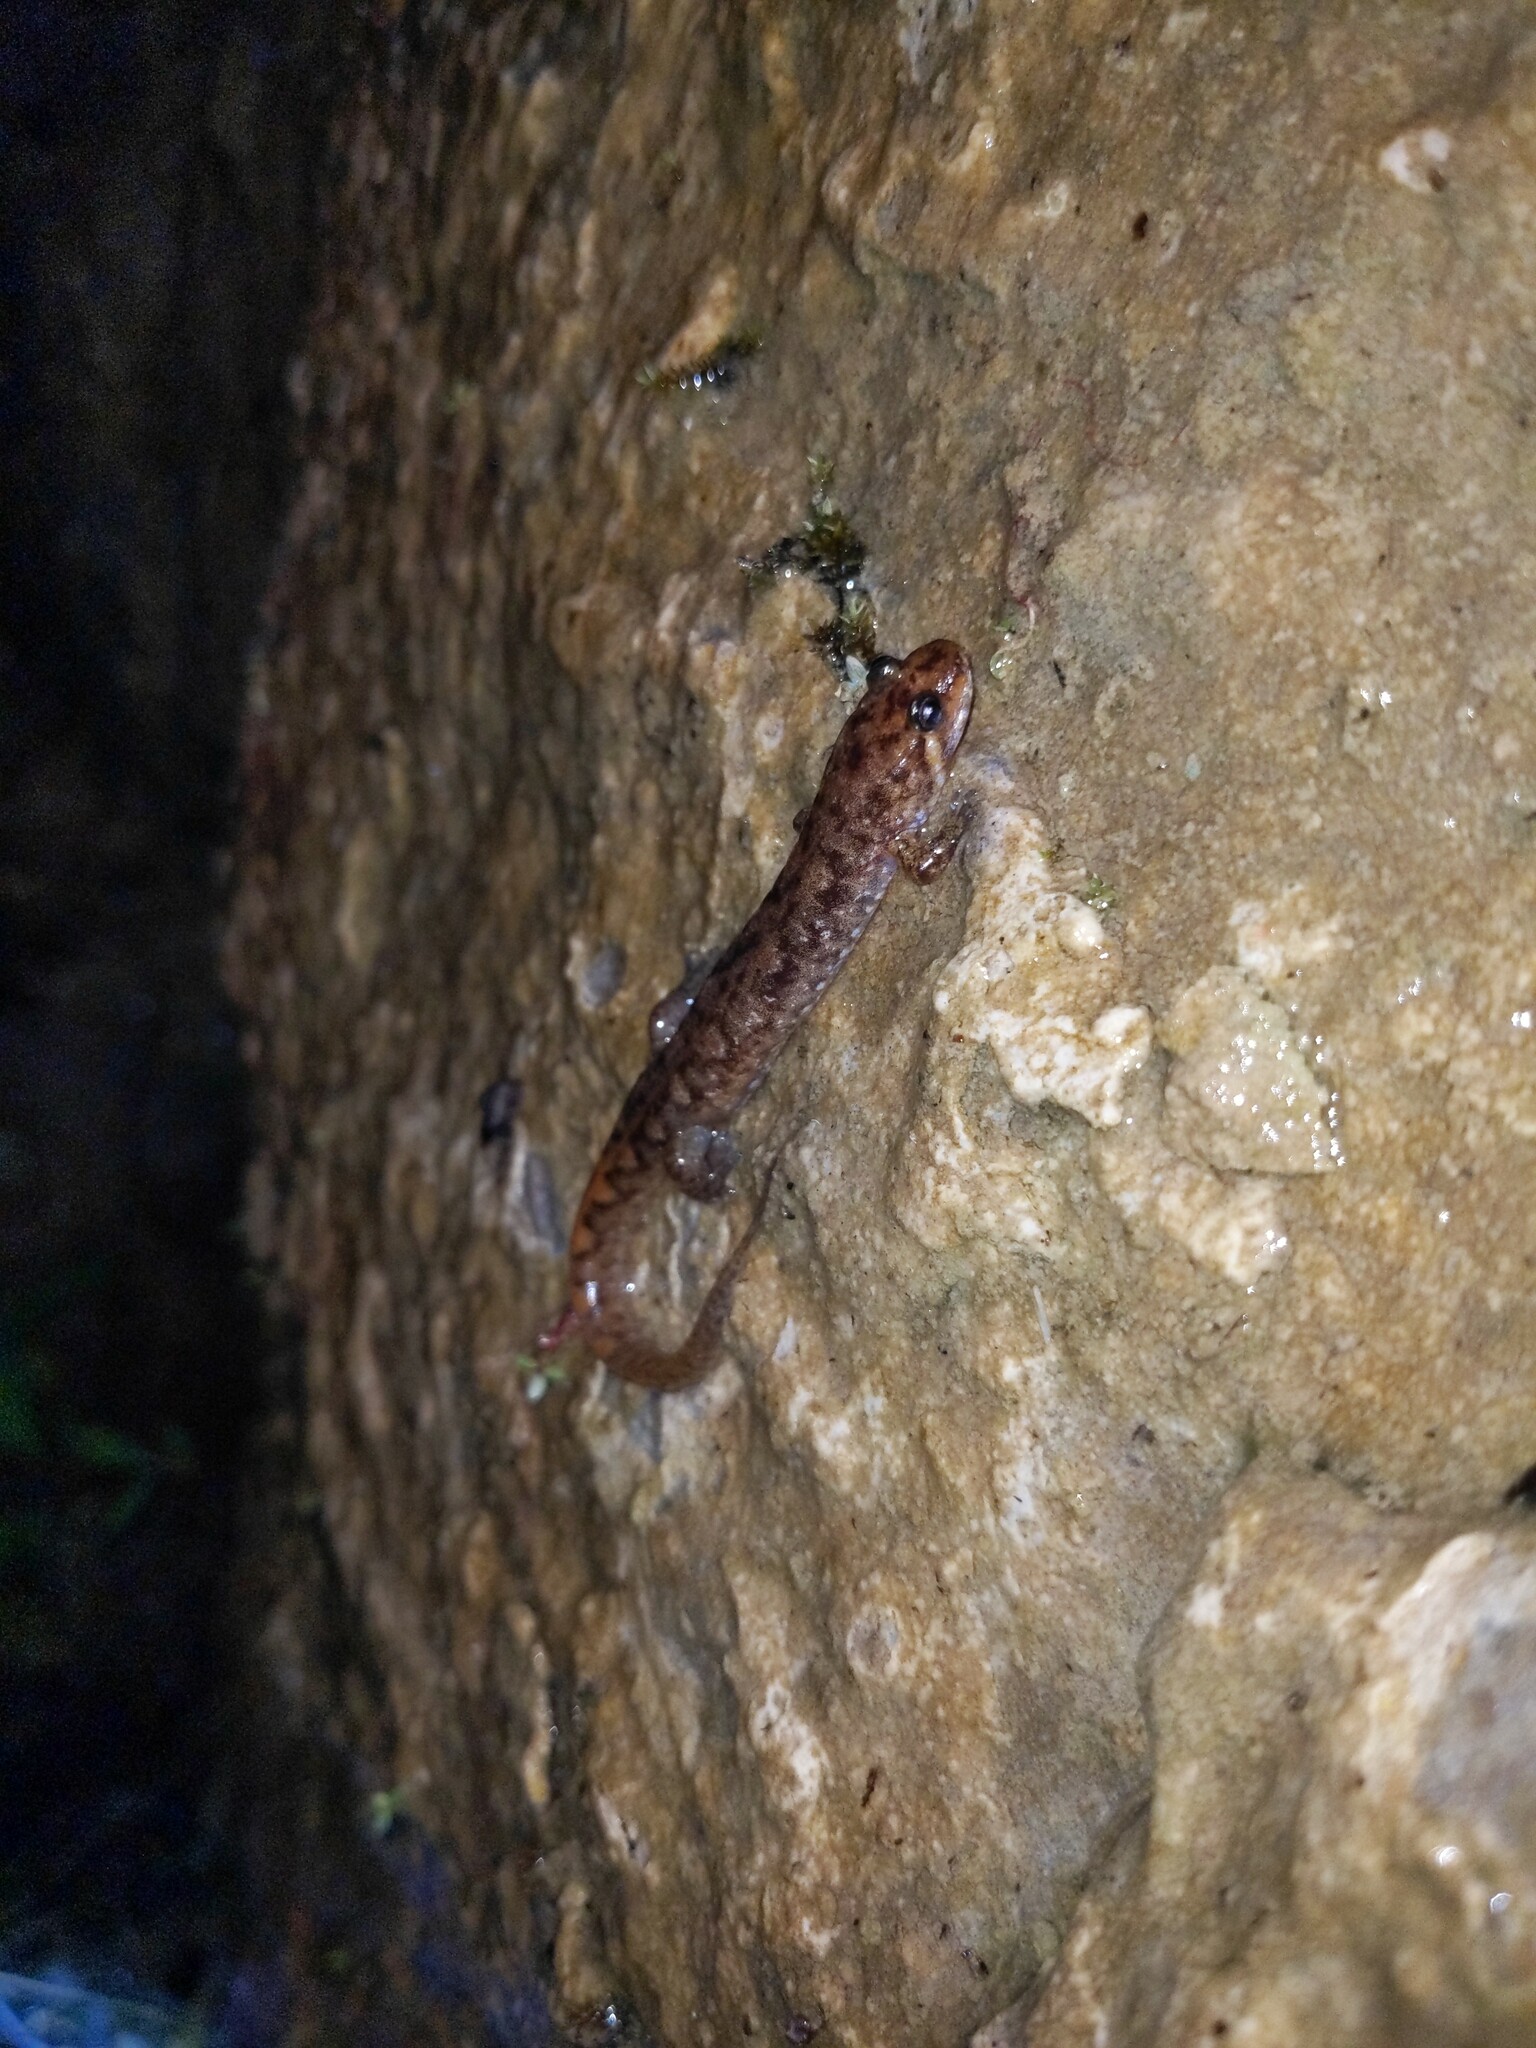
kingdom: Animalia
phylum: Chordata
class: Amphibia
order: Caudata
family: Plethodontidae
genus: Desmognathus
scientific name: Desmognathus monticola
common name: Seal salamander
